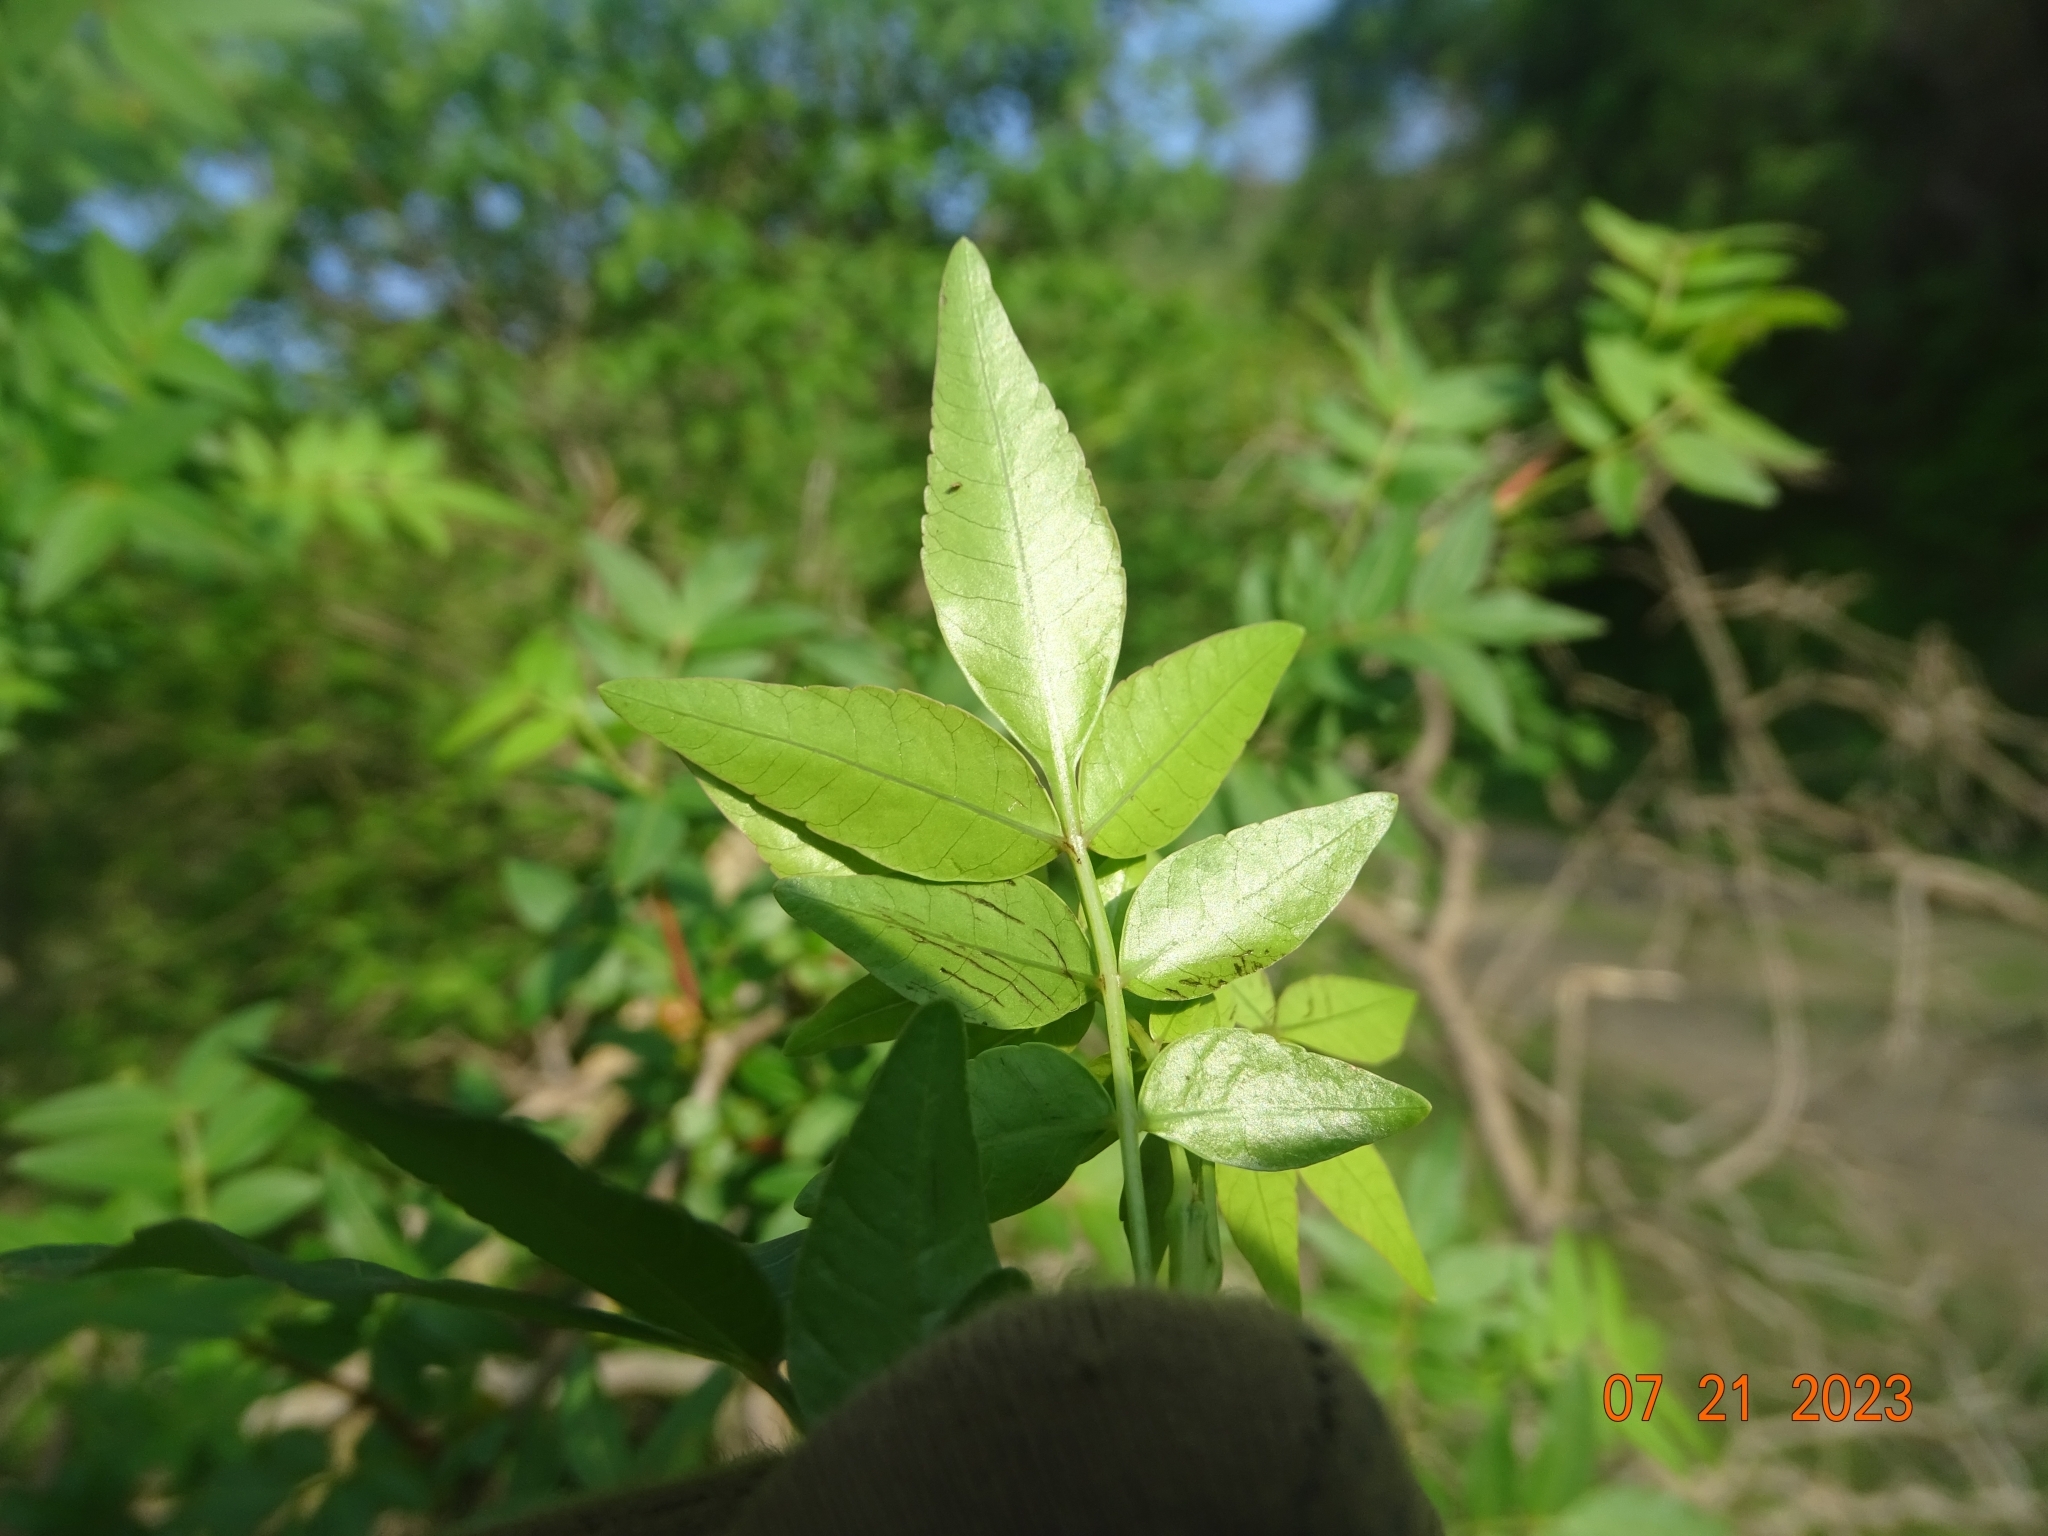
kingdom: Plantae
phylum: Tracheophyta
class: Magnoliopsida
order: Sapindales
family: Burseraceae
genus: Bursera
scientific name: Bursera fagaroides
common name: Elephant tree
